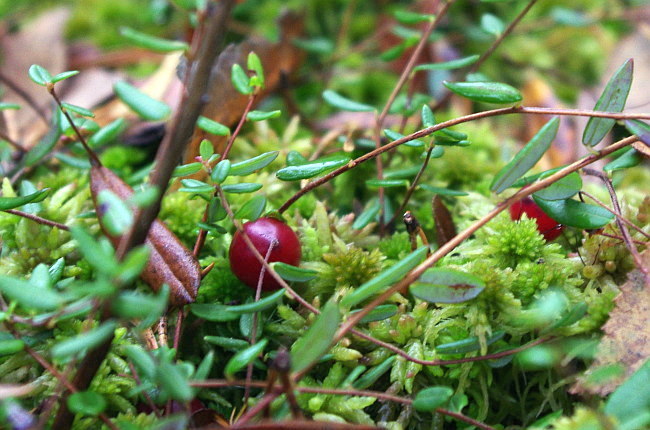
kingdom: Plantae
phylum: Tracheophyta
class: Magnoliopsida
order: Ericales
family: Ericaceae
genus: Vaccinium
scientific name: Vaccinium oxycoccos
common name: Cranberry
